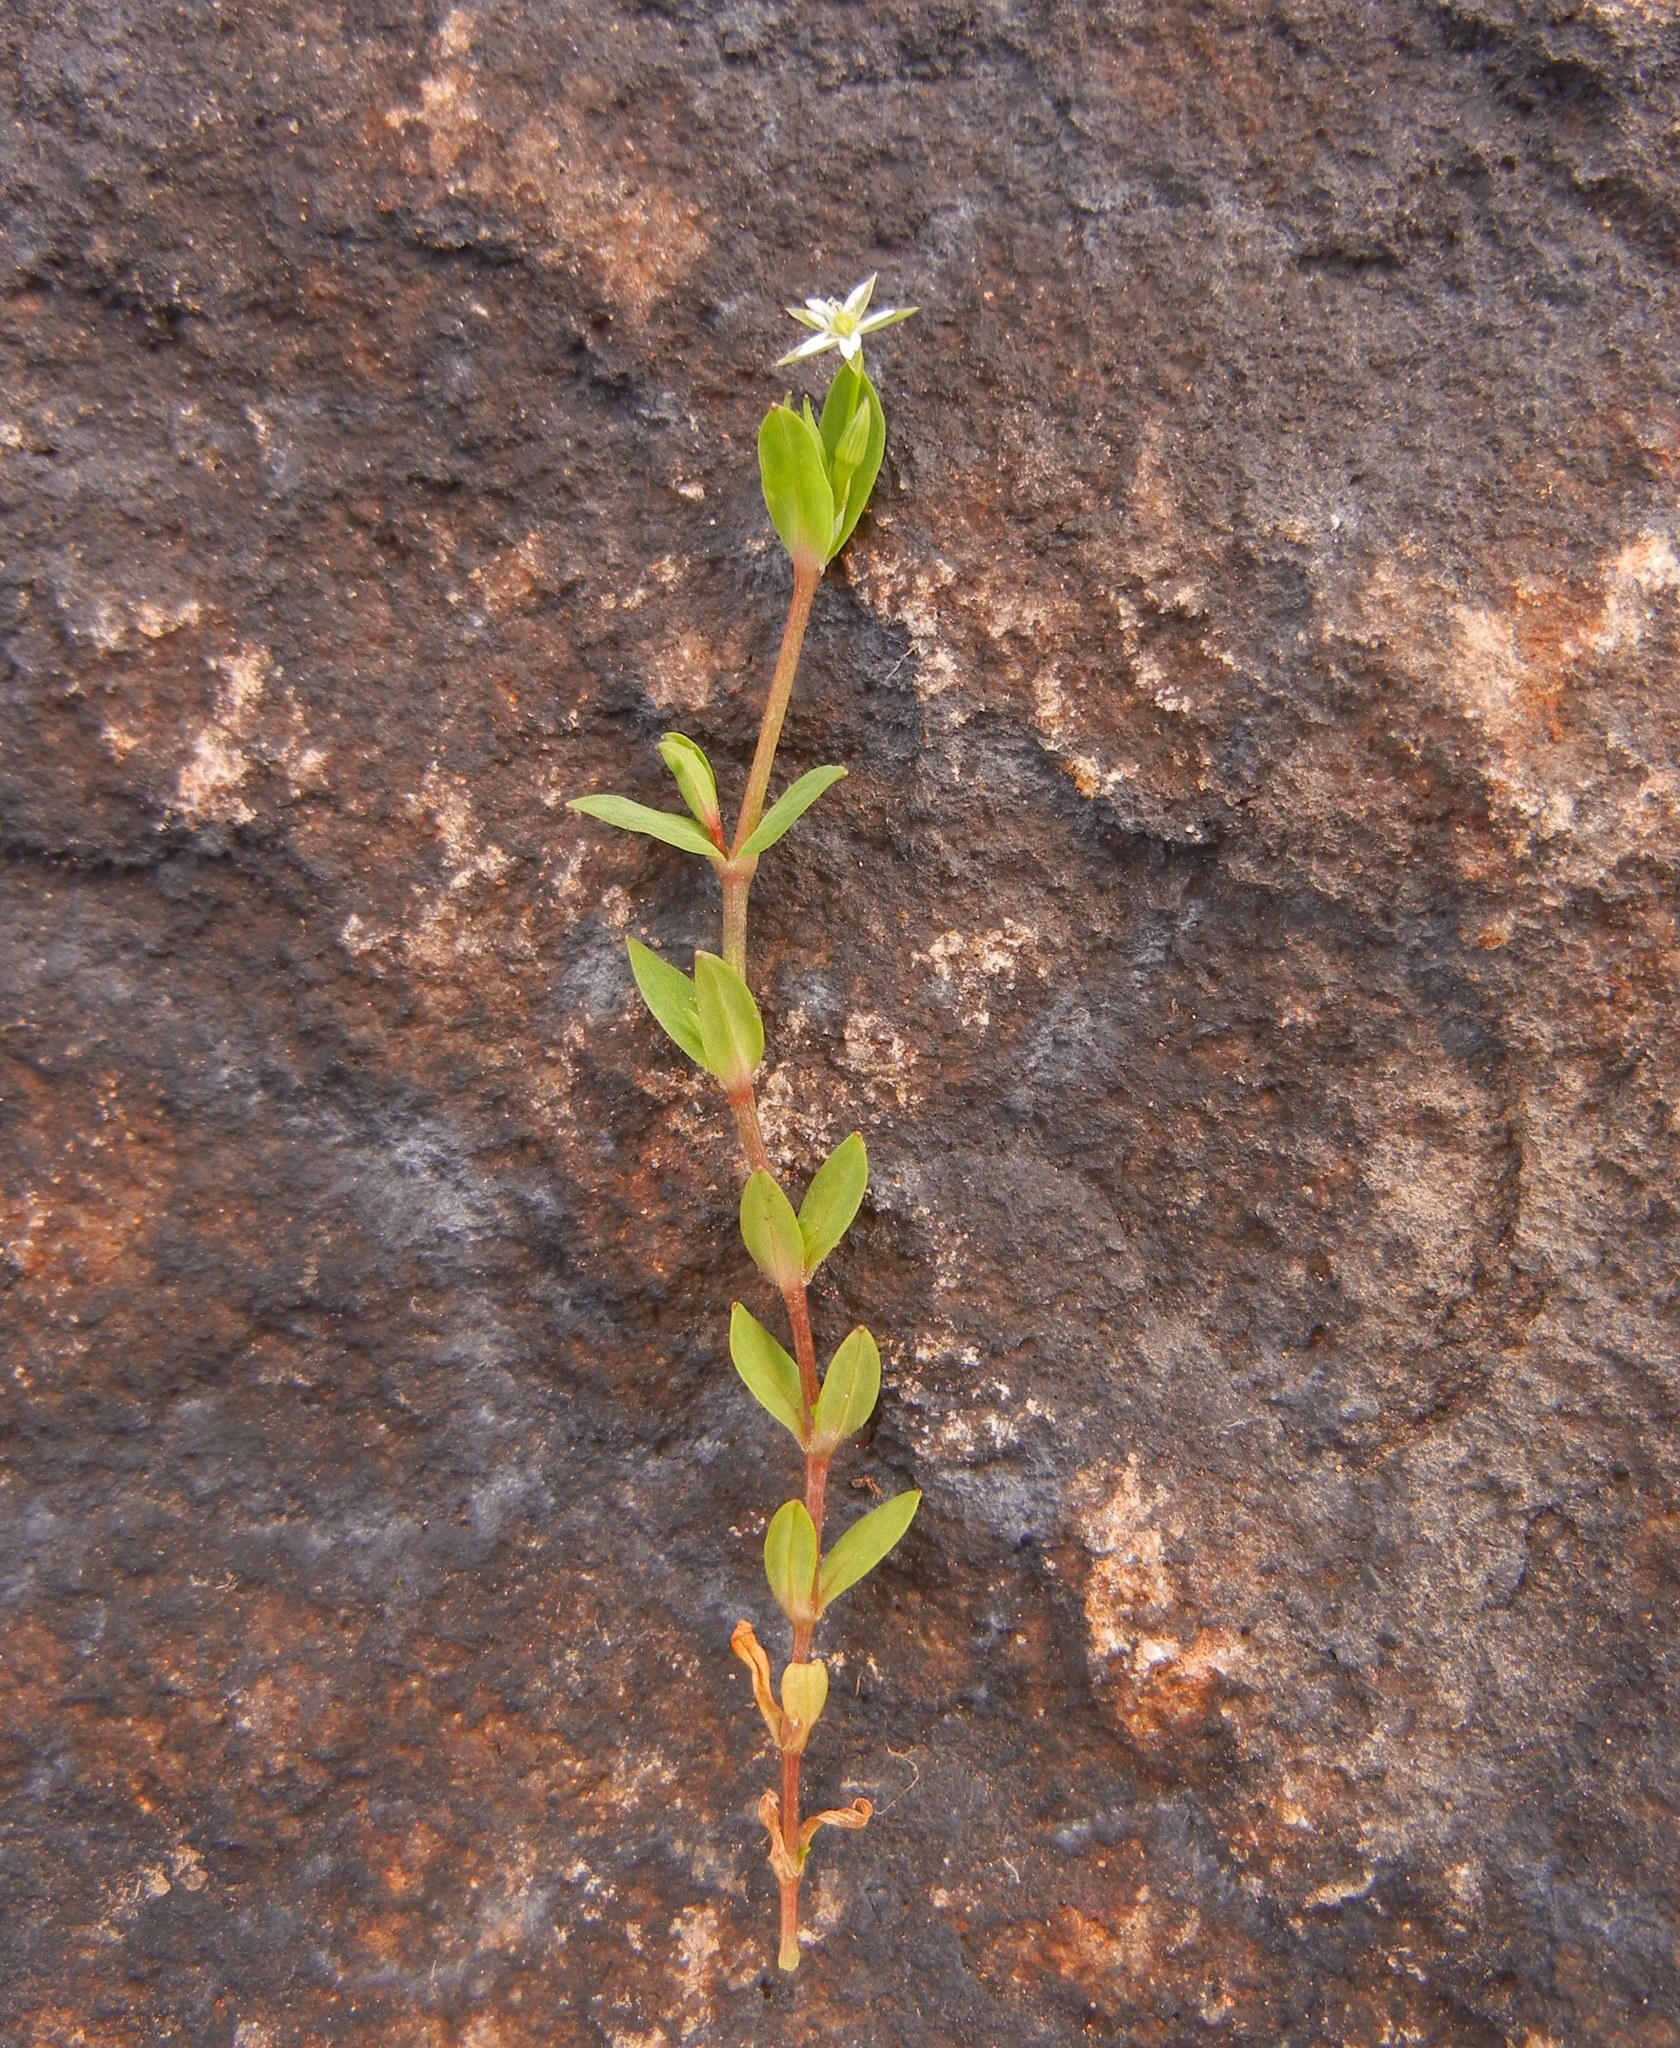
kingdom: Plantae
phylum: Tracheophyta
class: Magnoliopsida
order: Caryophyllales
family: Caryophyllaceae
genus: Stellaria
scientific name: Stellaria alsine
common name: Bog stitchwort
